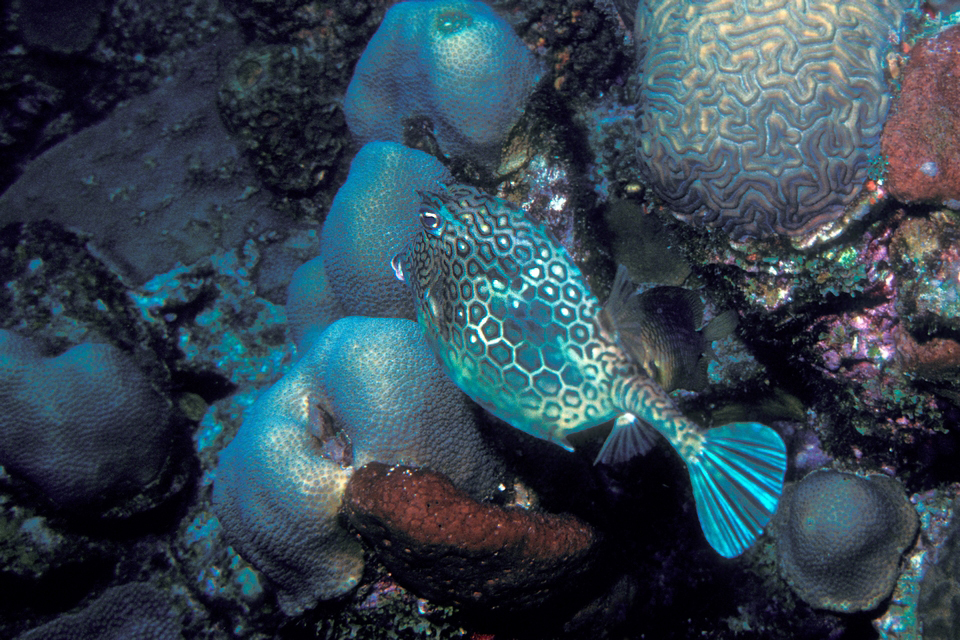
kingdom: Animalia
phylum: Chordata
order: Tetraodontiformes
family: Ostraciidae
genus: Acanthostracion
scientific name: Acanthostracion polygonius
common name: Honeycomb cowfish
